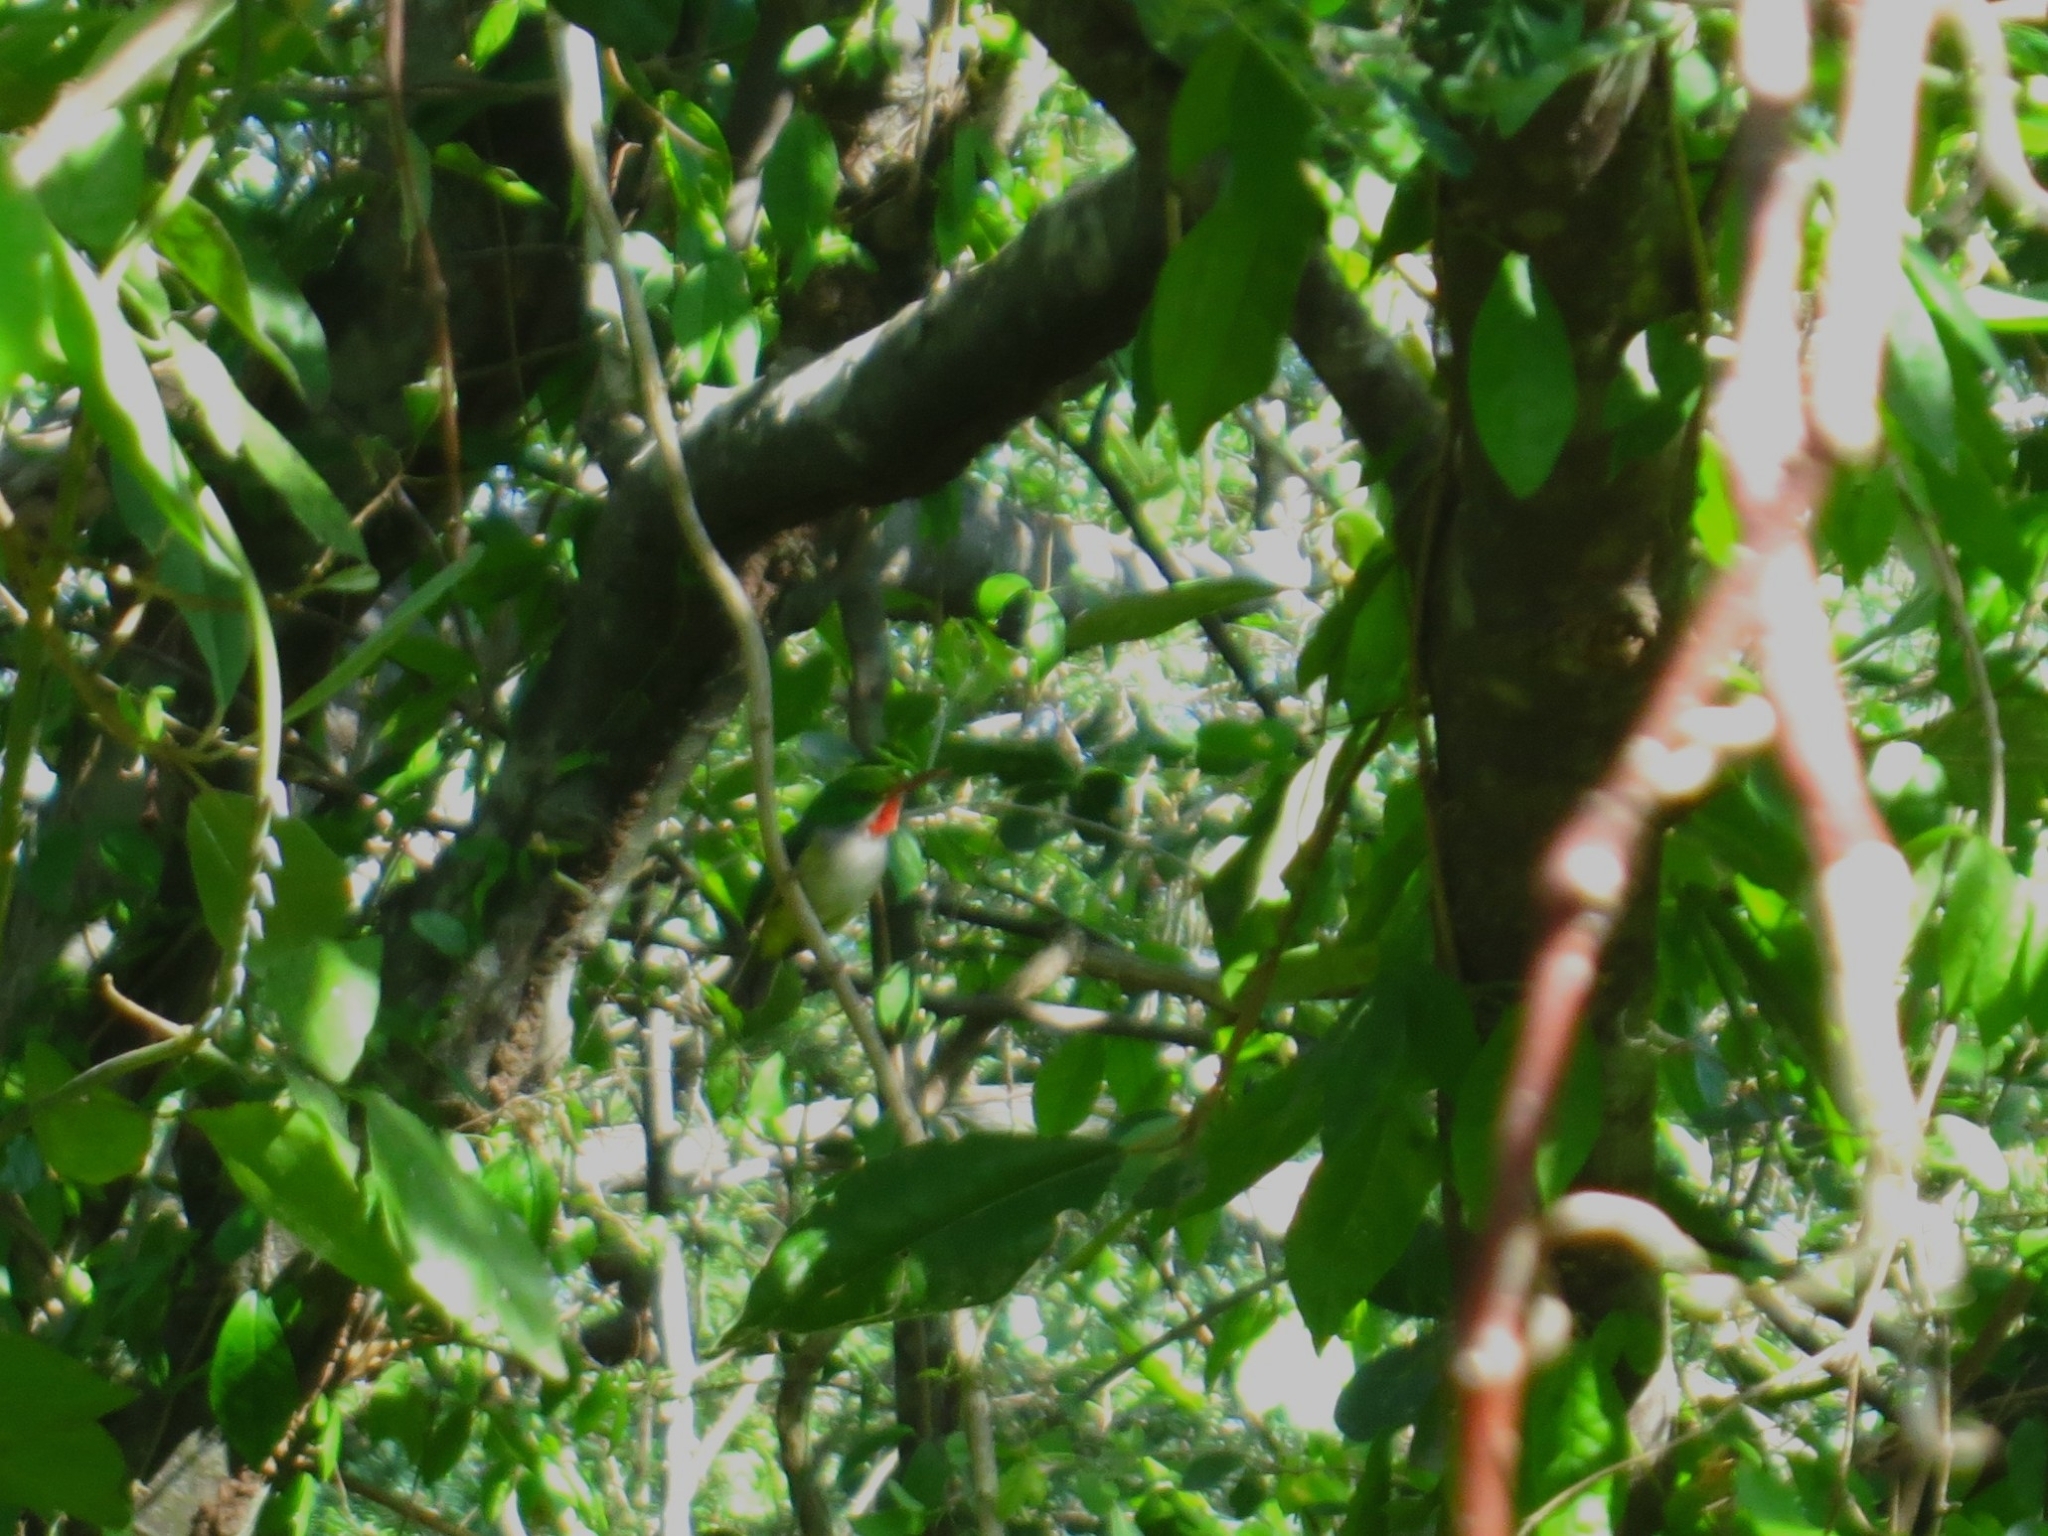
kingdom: Animalia
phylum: Chordata
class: Aves
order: Coraciiformes
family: Todidae
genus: Todus
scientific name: Todus mexicanus
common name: Puerto rican tody
